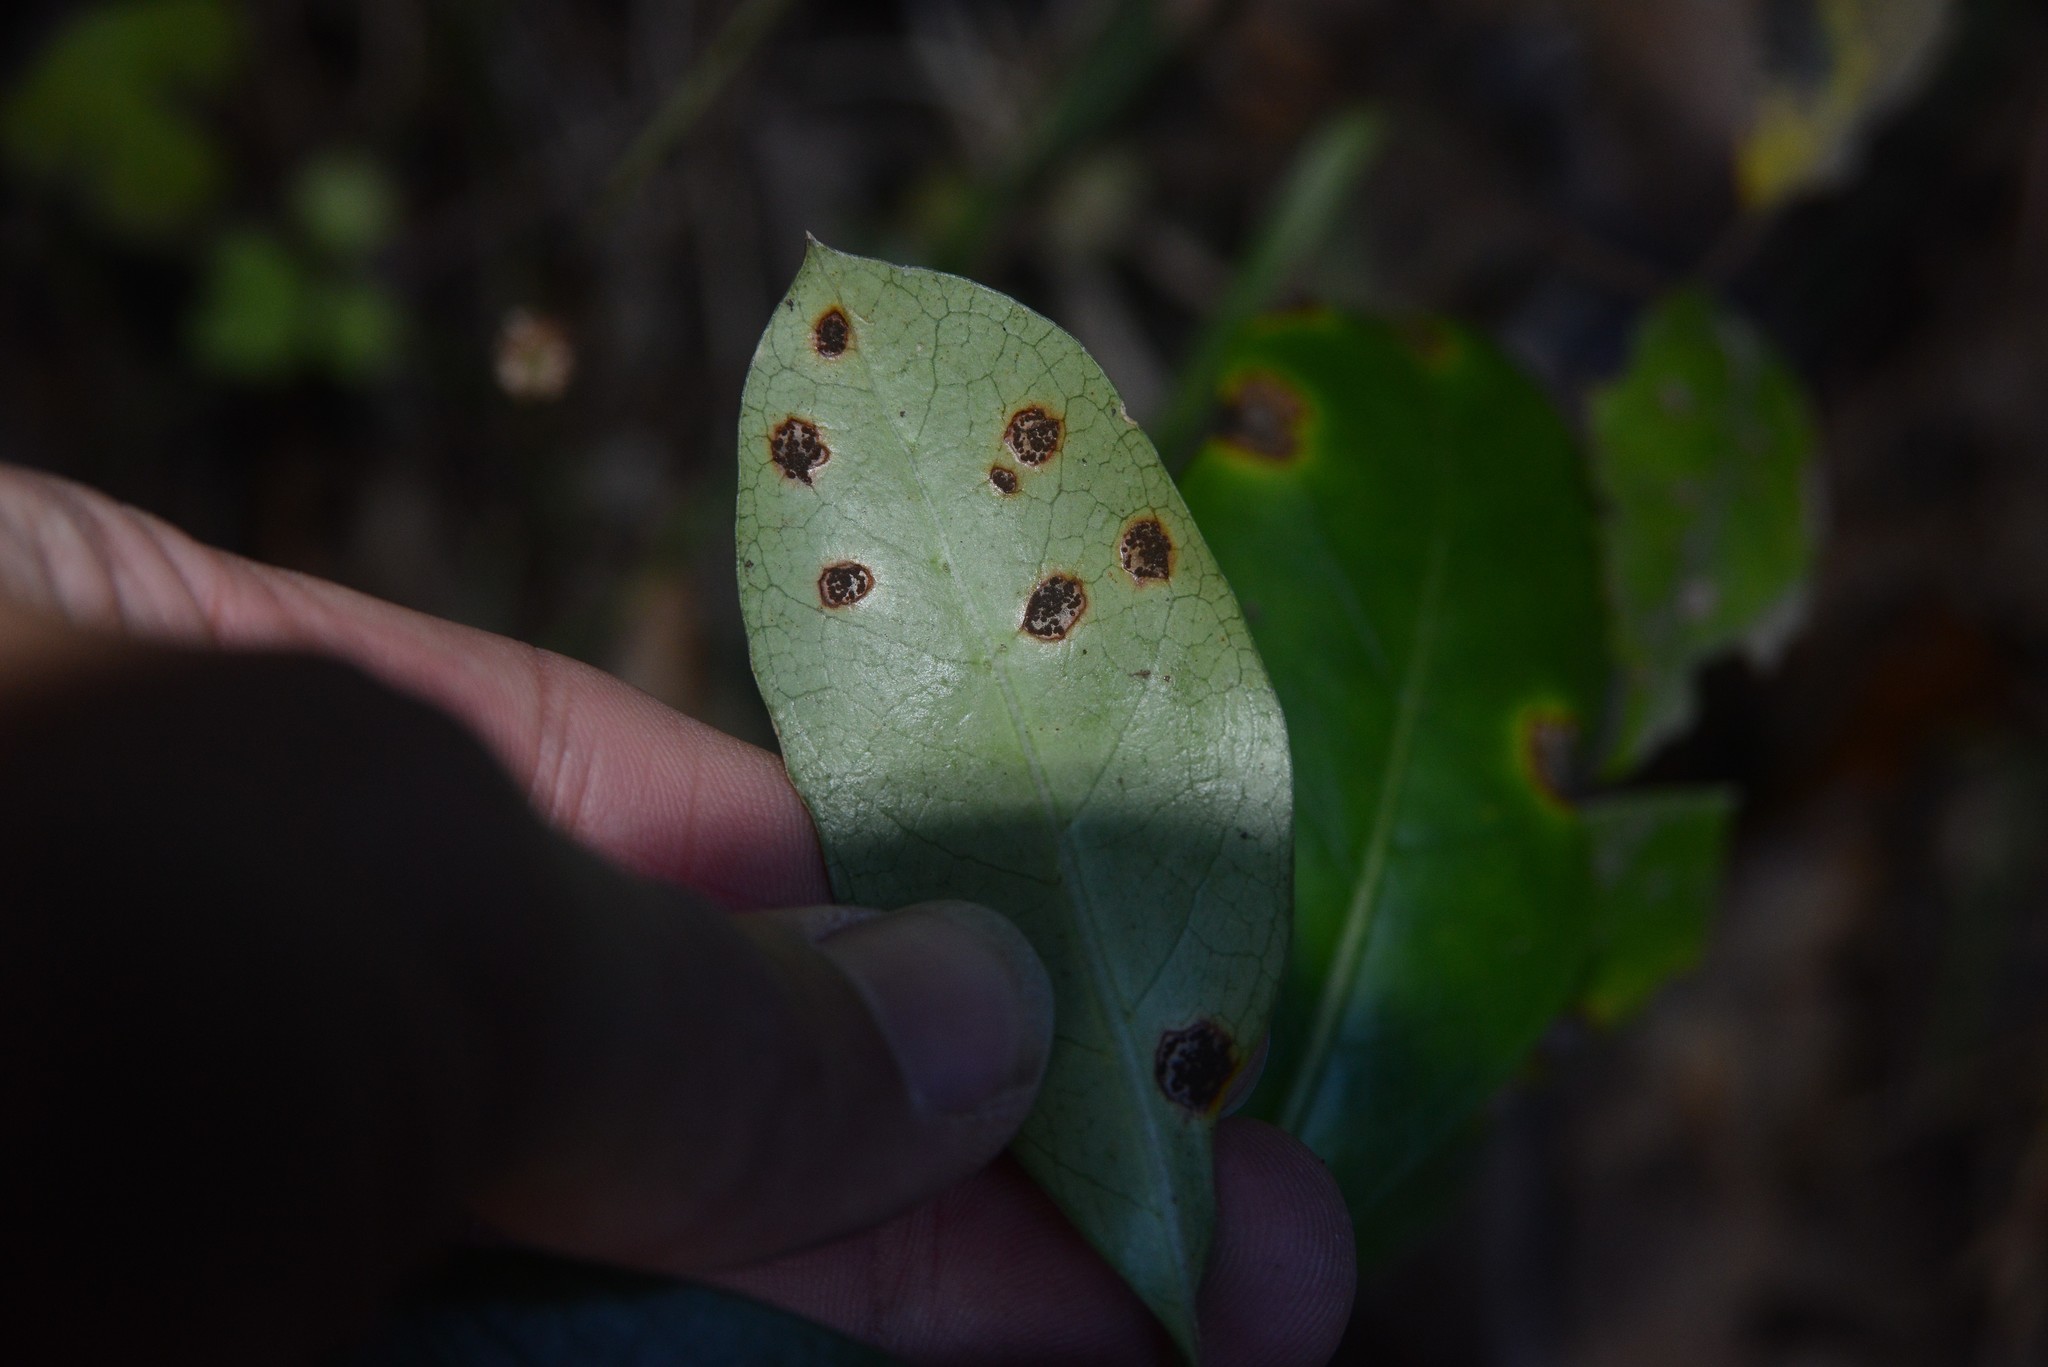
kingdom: Fungi
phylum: Basidiomycota
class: Pucciniomycetes
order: Pucciniales
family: Pucciniaceae
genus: Puccinia
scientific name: Puccinia coprosmae
